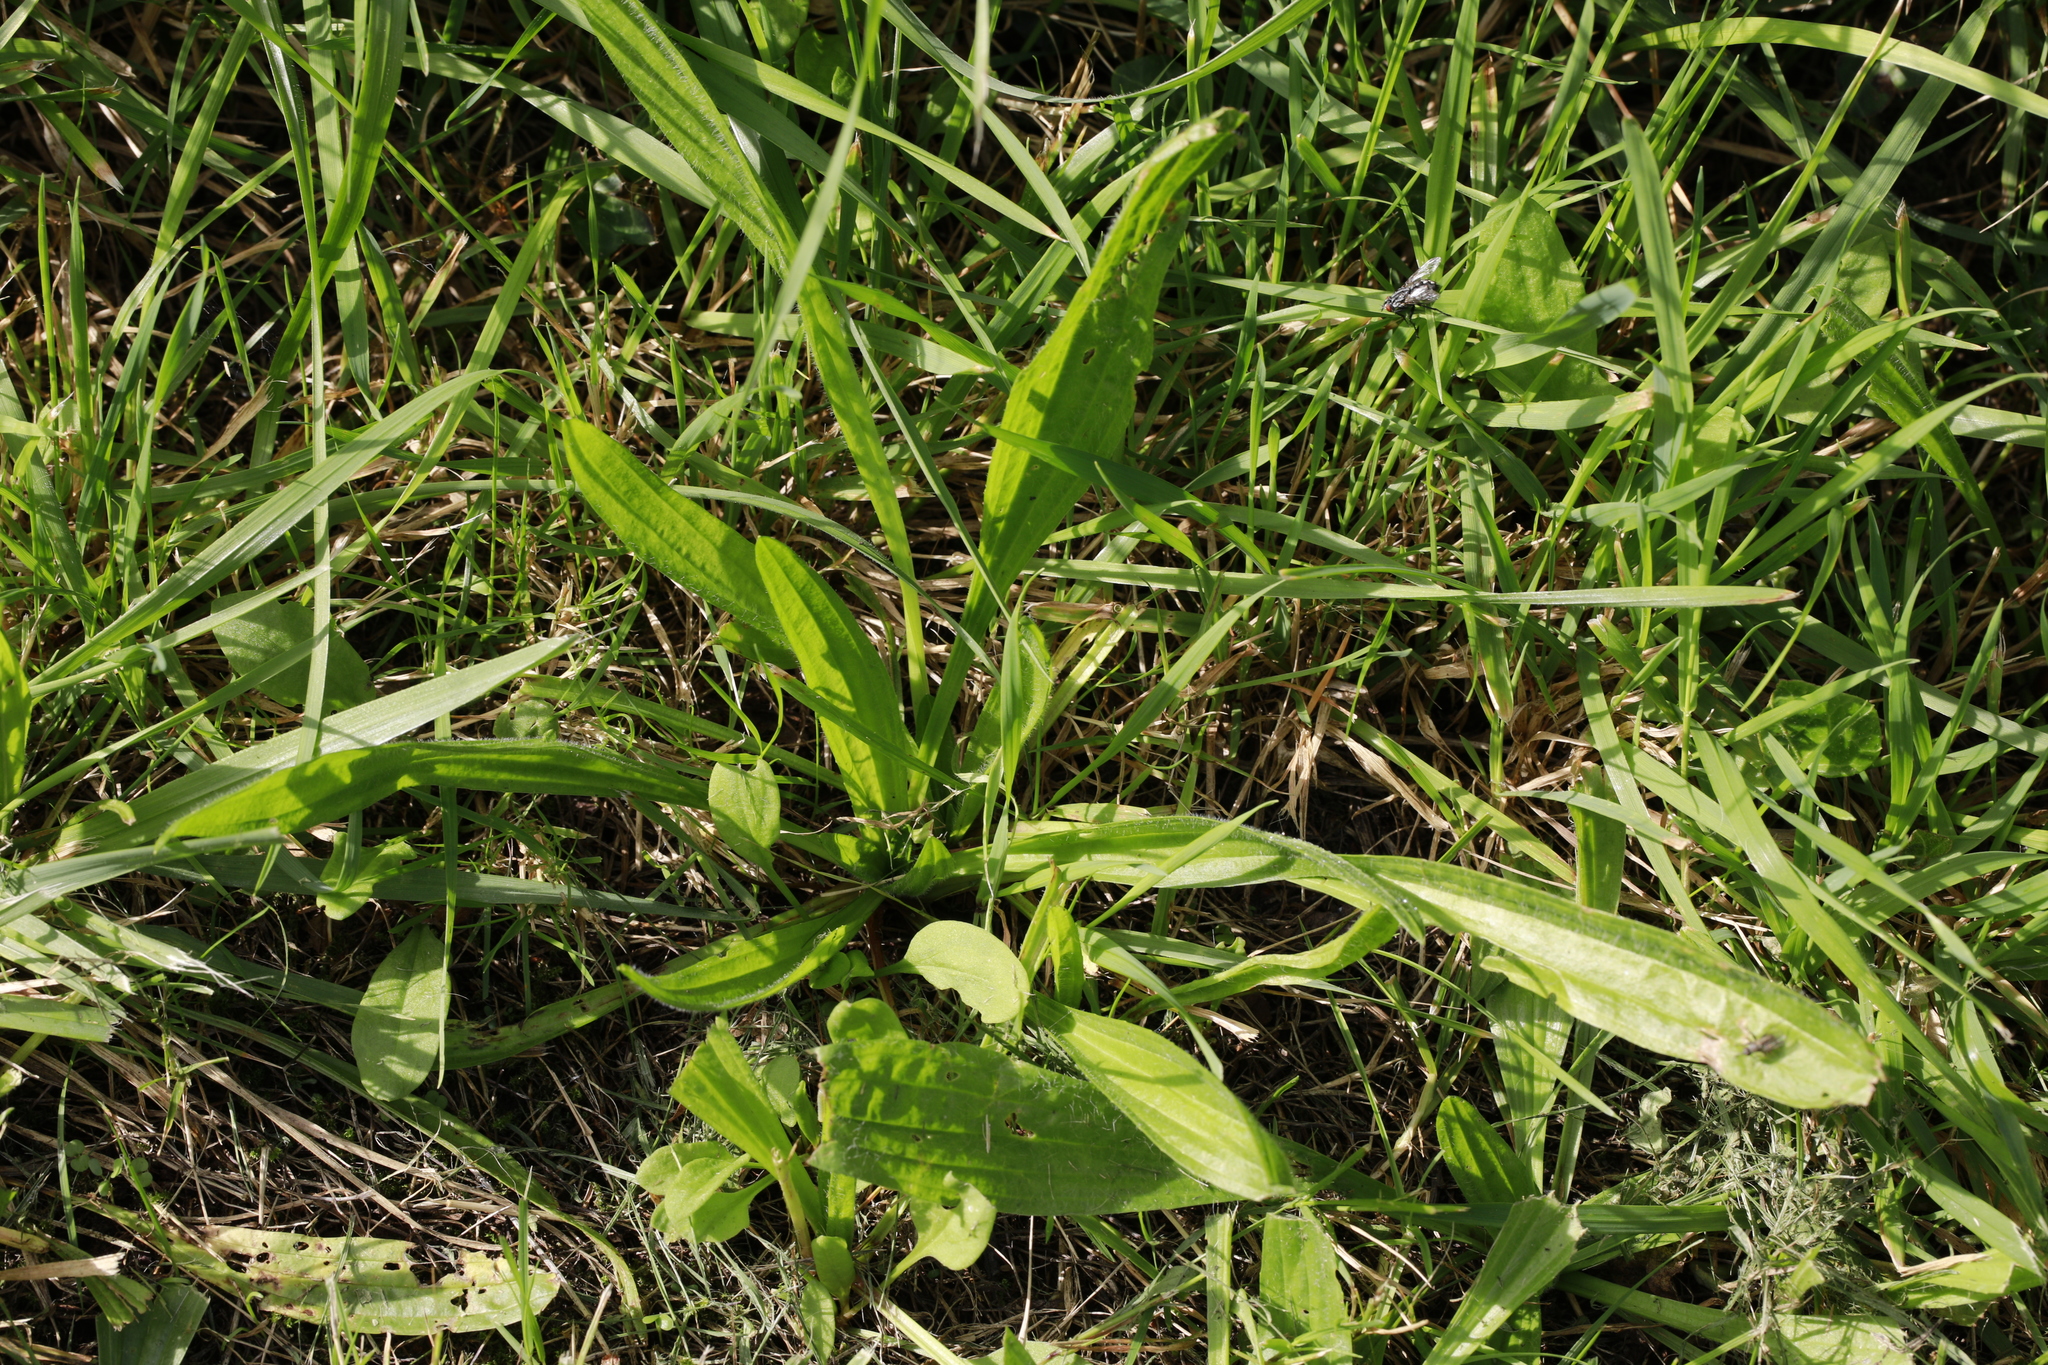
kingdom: Plantae
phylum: Tracheophyta
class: Magnoliopsida
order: Lamiales
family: Plantaginaceae
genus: Plantago
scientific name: Plantago lanceolata
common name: Ribwort plantain
